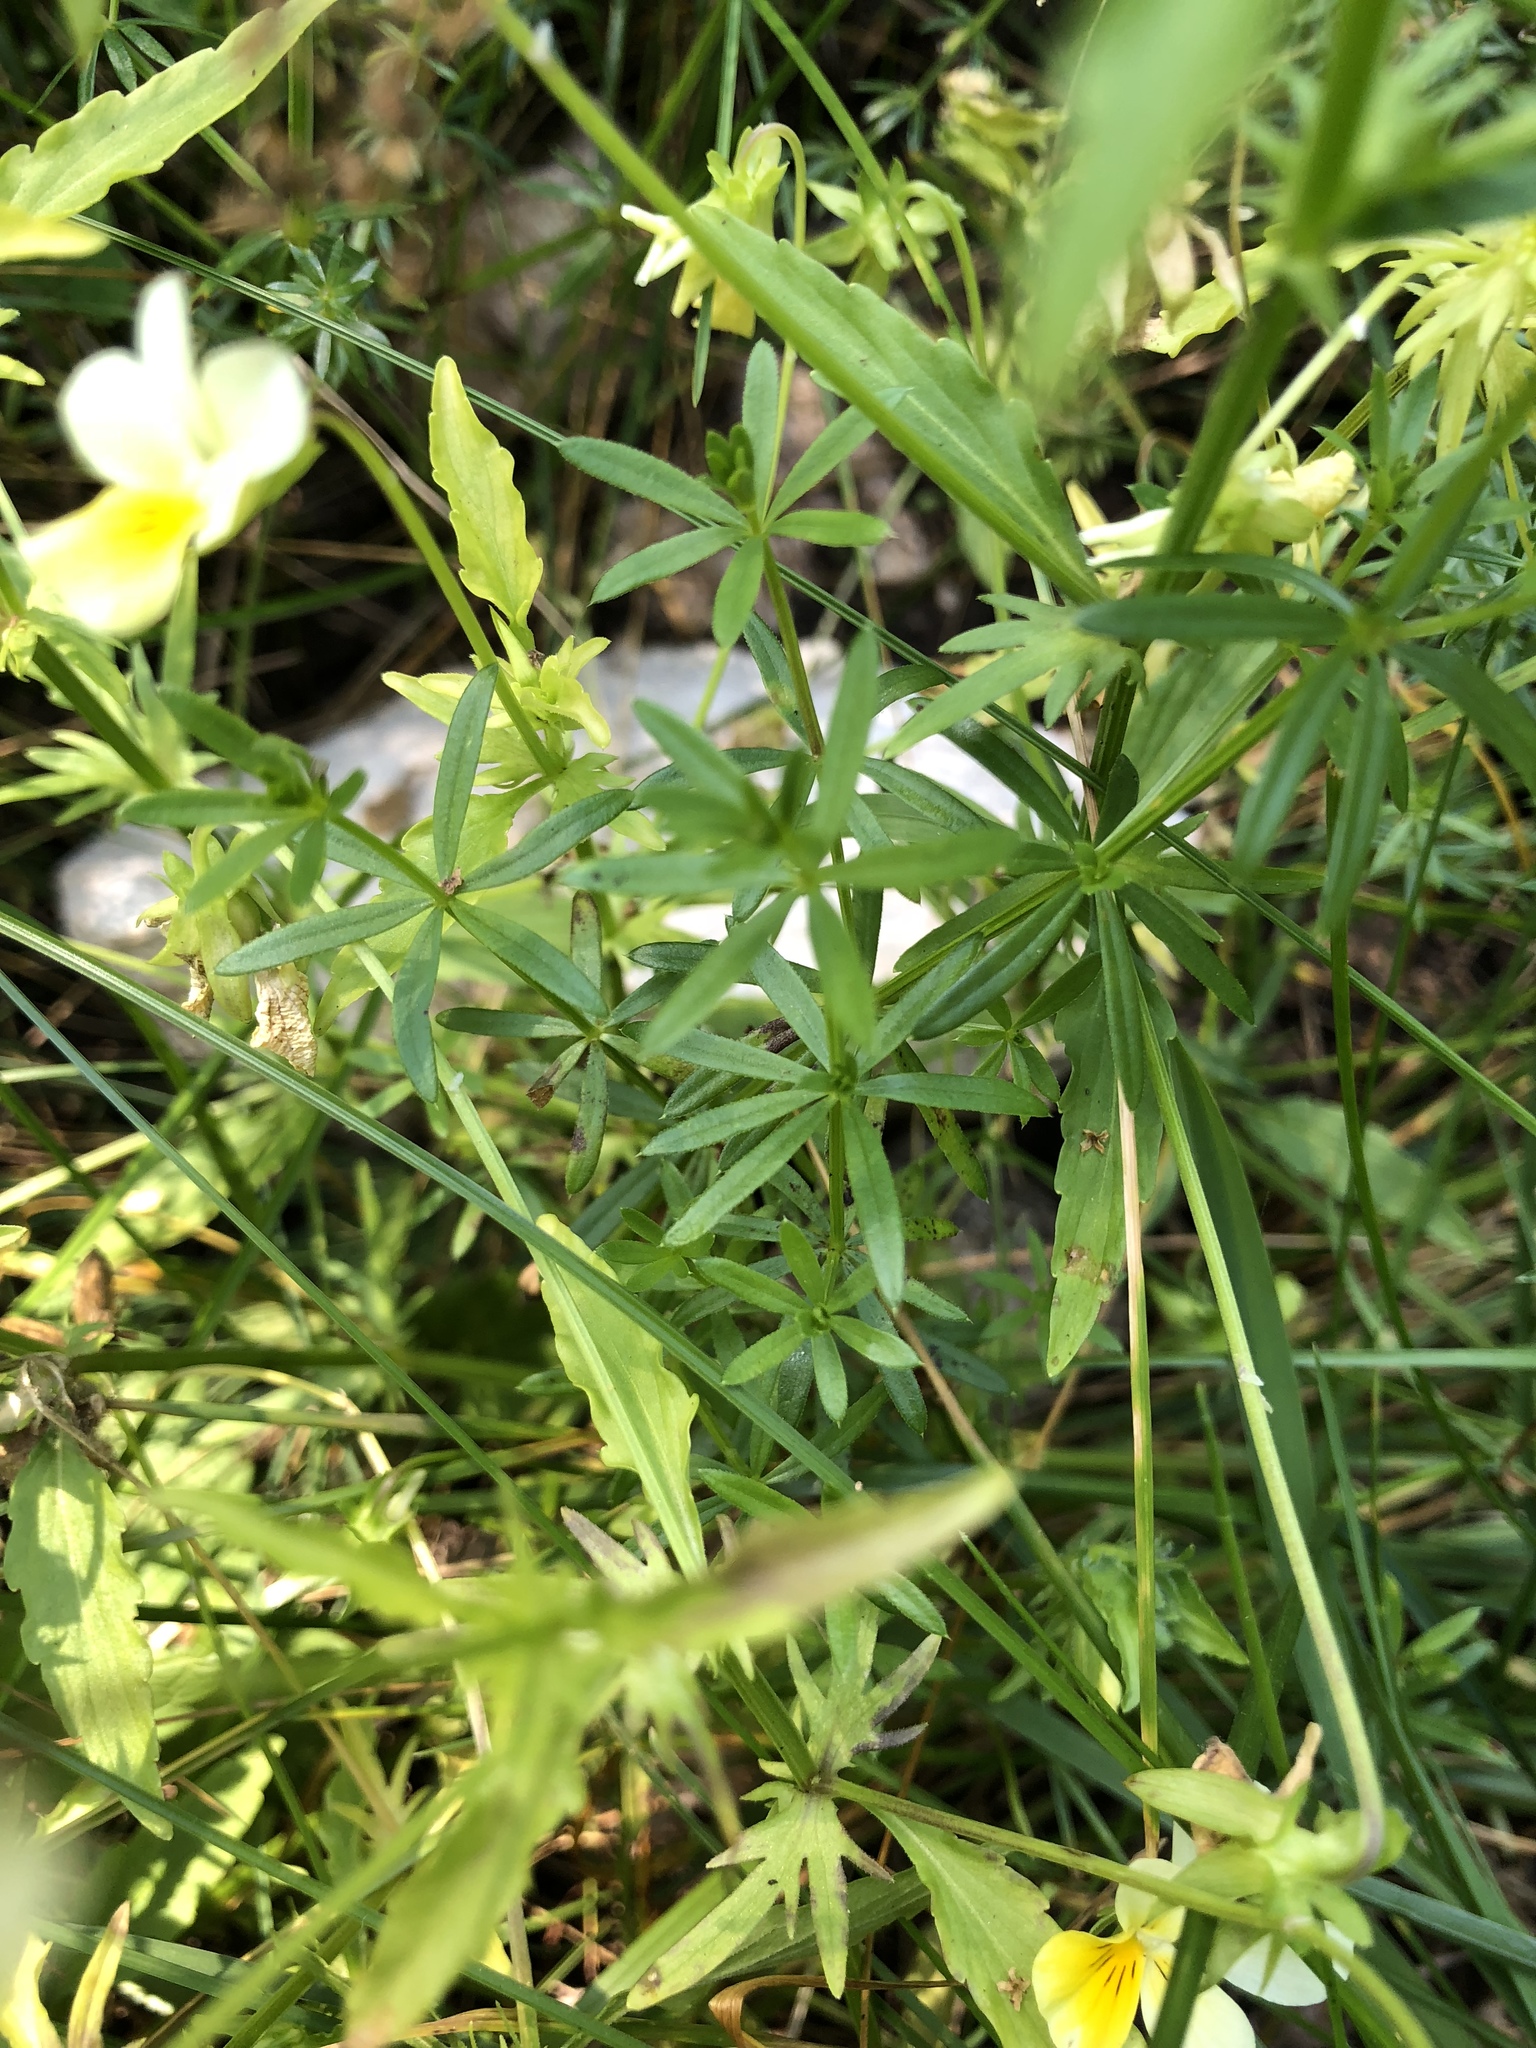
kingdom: Plantae
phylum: Tracheophyta
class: Magnoliopsida
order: Malpighiales
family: Violaceae
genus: Viola
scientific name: Viola arvensis
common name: Field pansy
